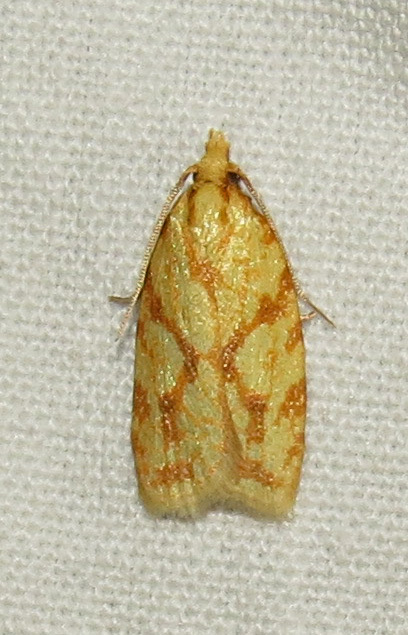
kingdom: Animalia
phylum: Arthropoda
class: Insecta
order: Lepidoptera
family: Tortricidae
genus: Sparganothis
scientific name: Sparganothis sulfureana
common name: Sparganothis fruitworm moth
